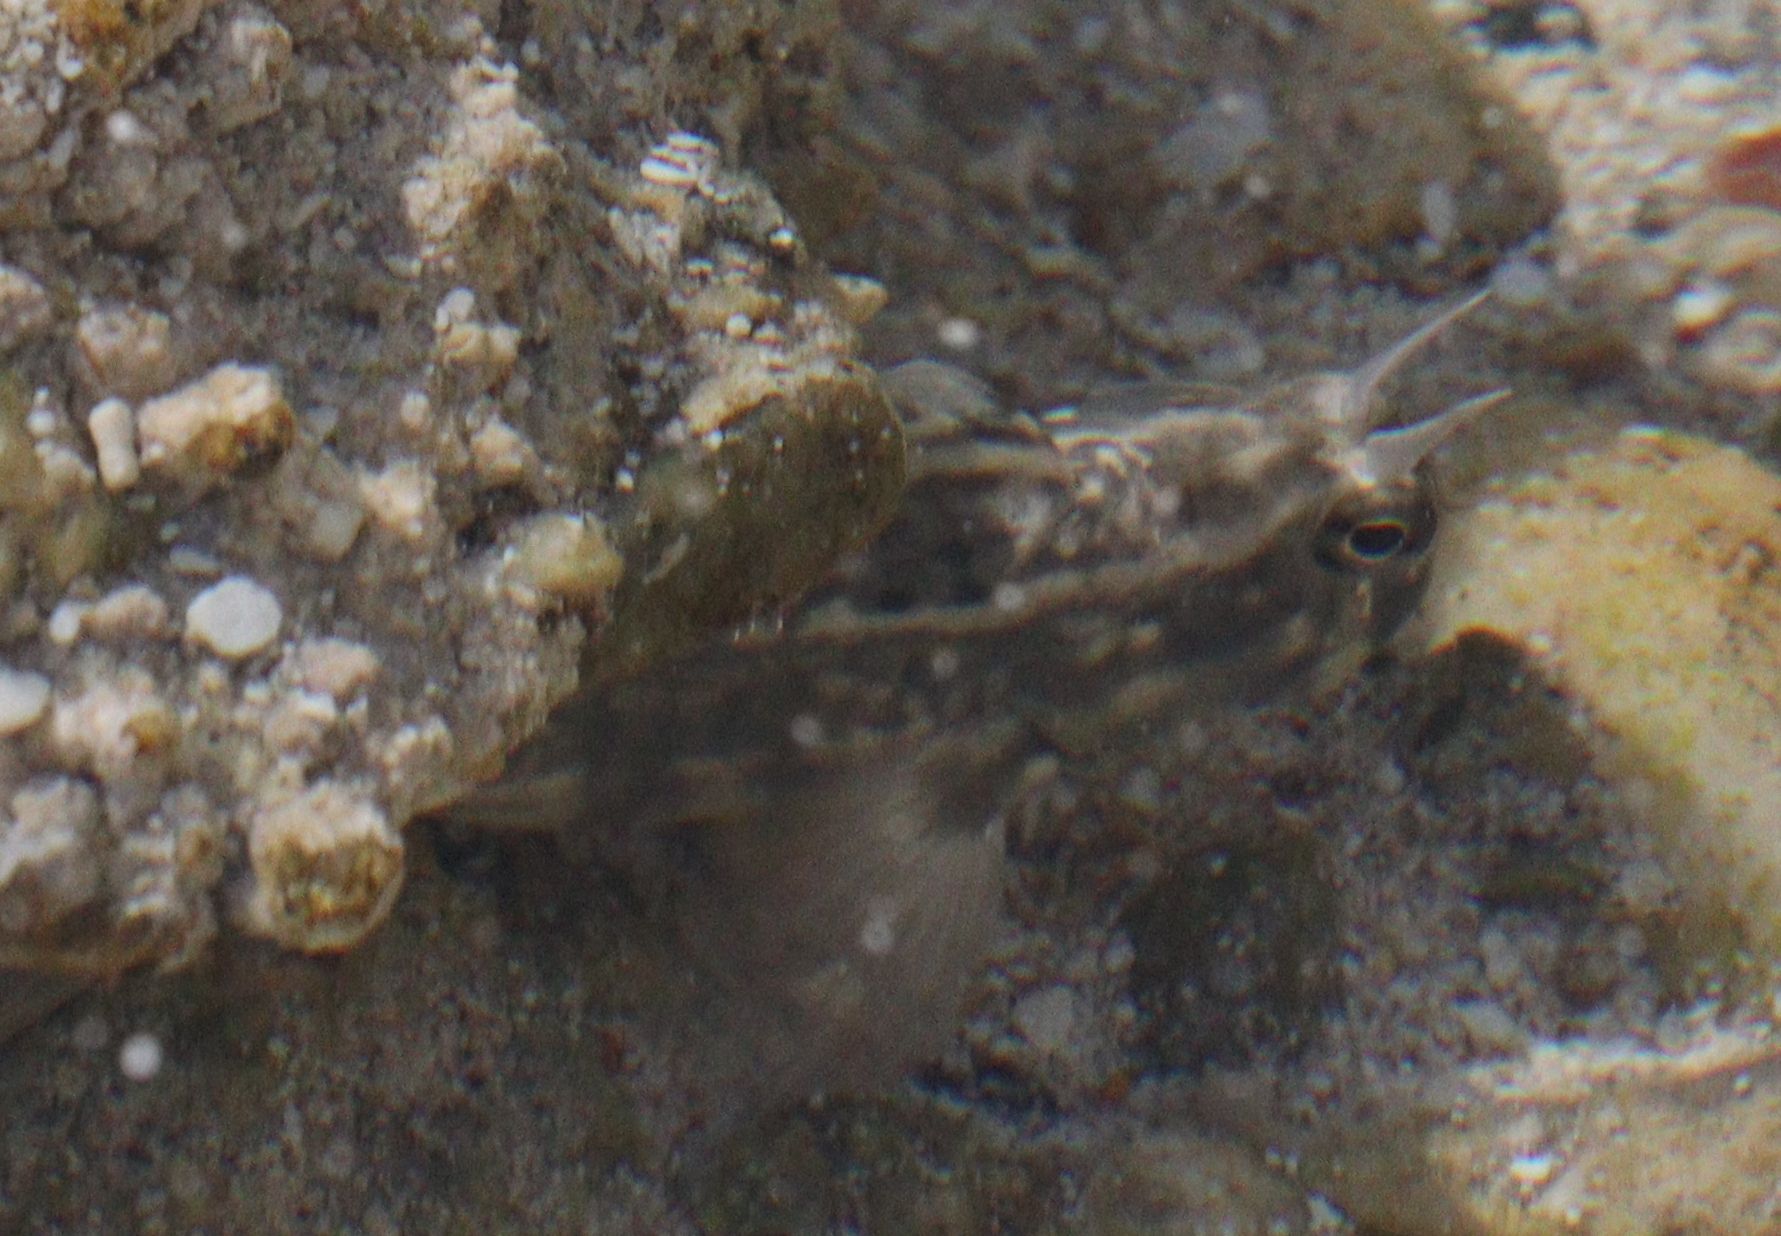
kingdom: Animalia
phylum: Chordata
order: Perciformes
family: Blenniidae
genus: Istiblennius
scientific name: Istiblennius rivulatus
